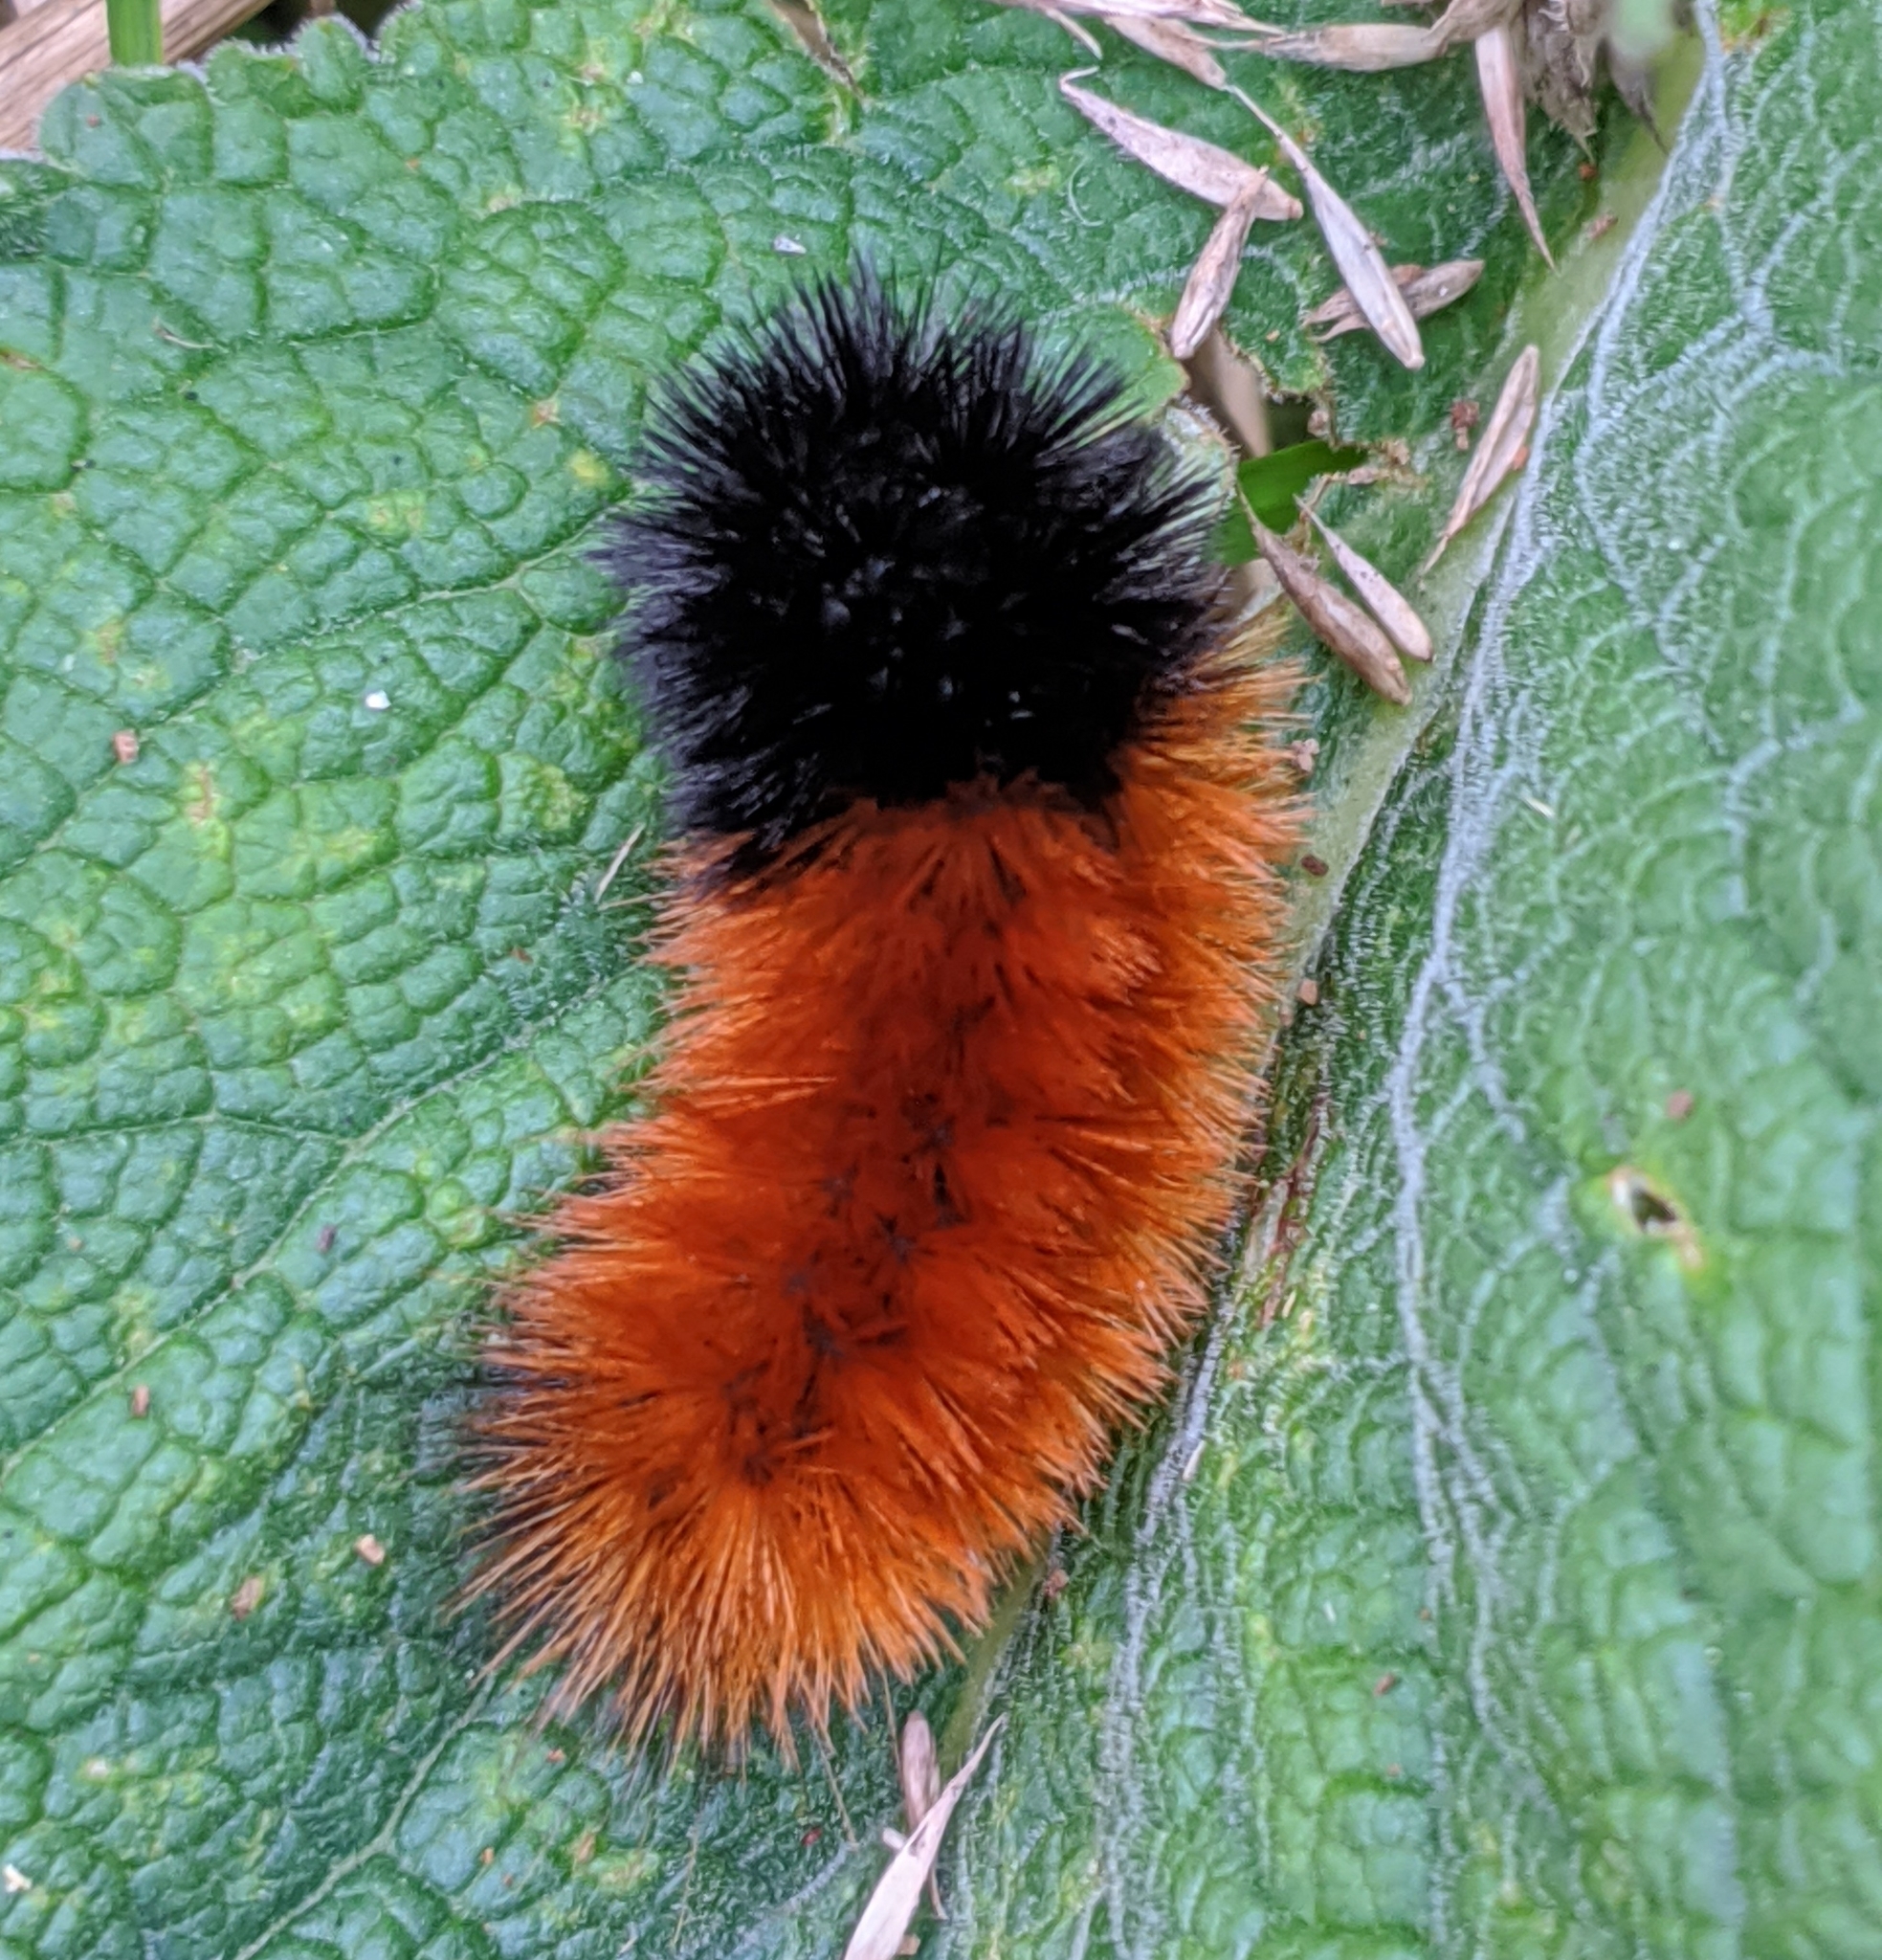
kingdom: Animalia
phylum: Arthropoda
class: Insecta
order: Lepidoptera
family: Erebidae
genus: Pyrrharctia
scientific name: Pyrrharctia isabella
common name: Isabella tiger moth
